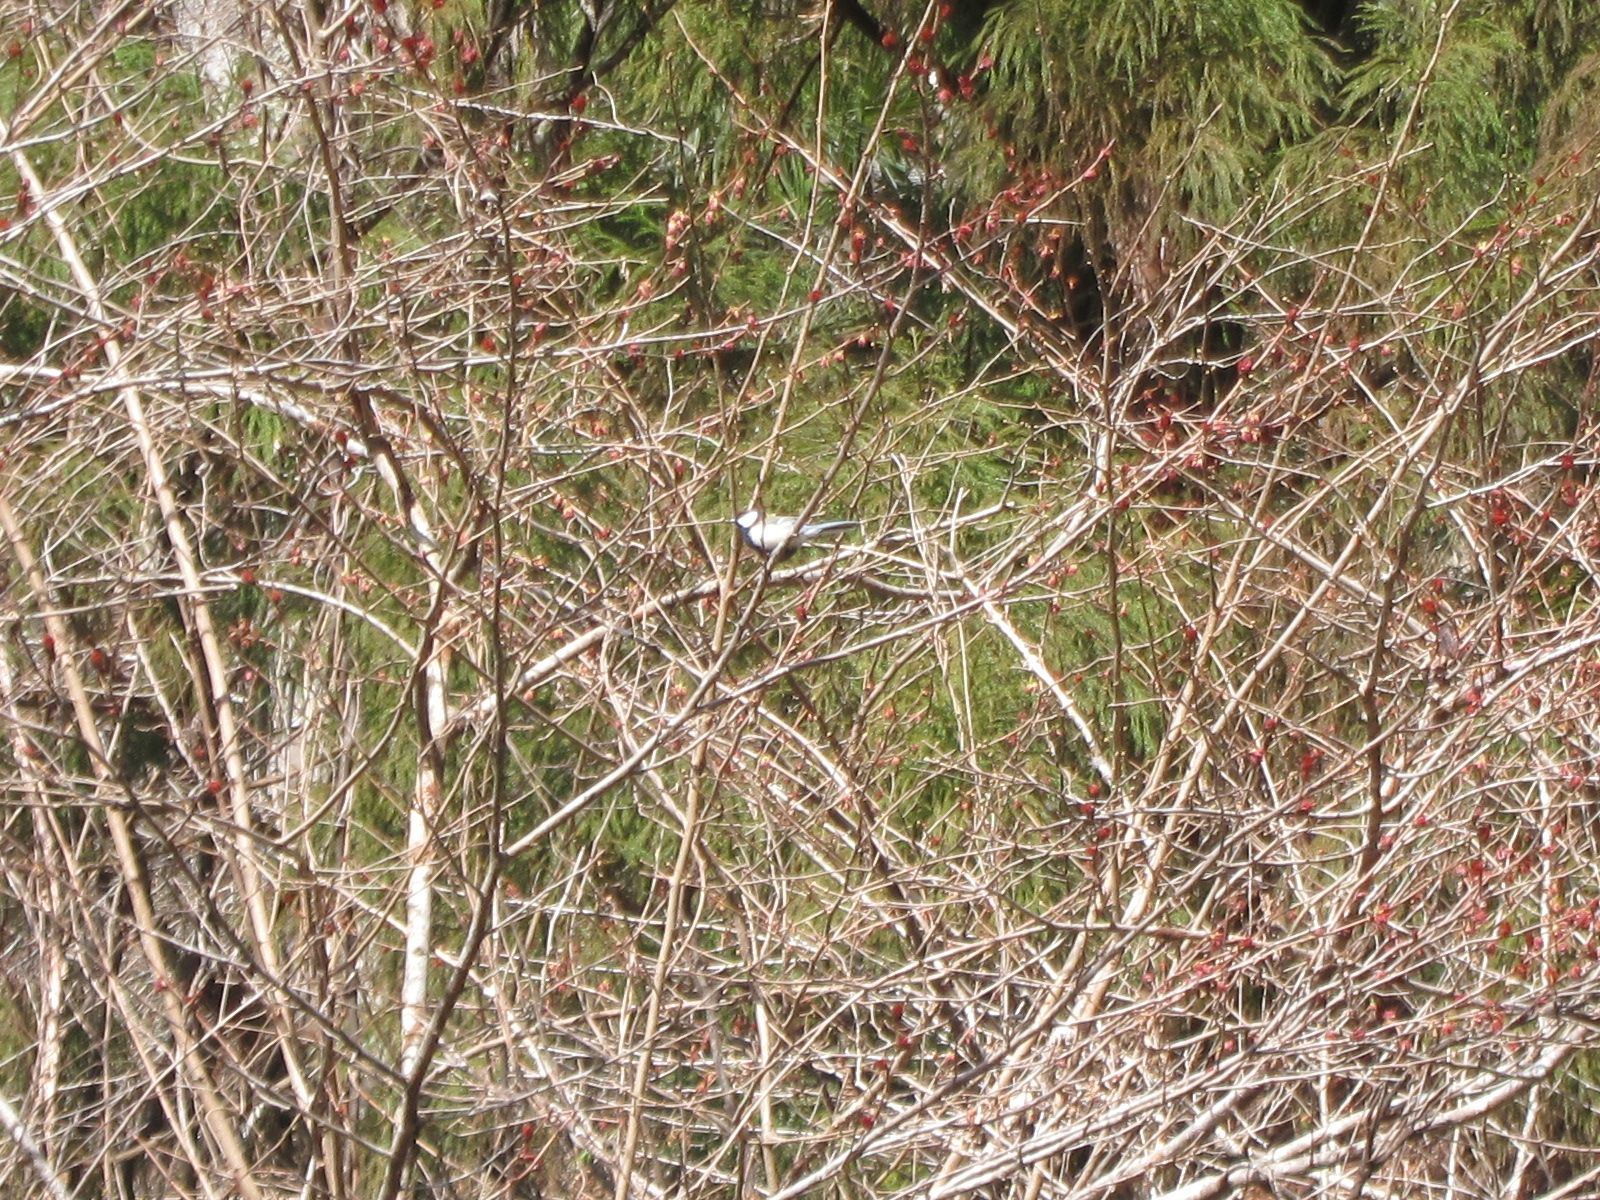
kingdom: Animalia
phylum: Chordata
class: Aves
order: Passeriformes
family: Paridae
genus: Parus
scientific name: Parus minor
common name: Japanese tit
